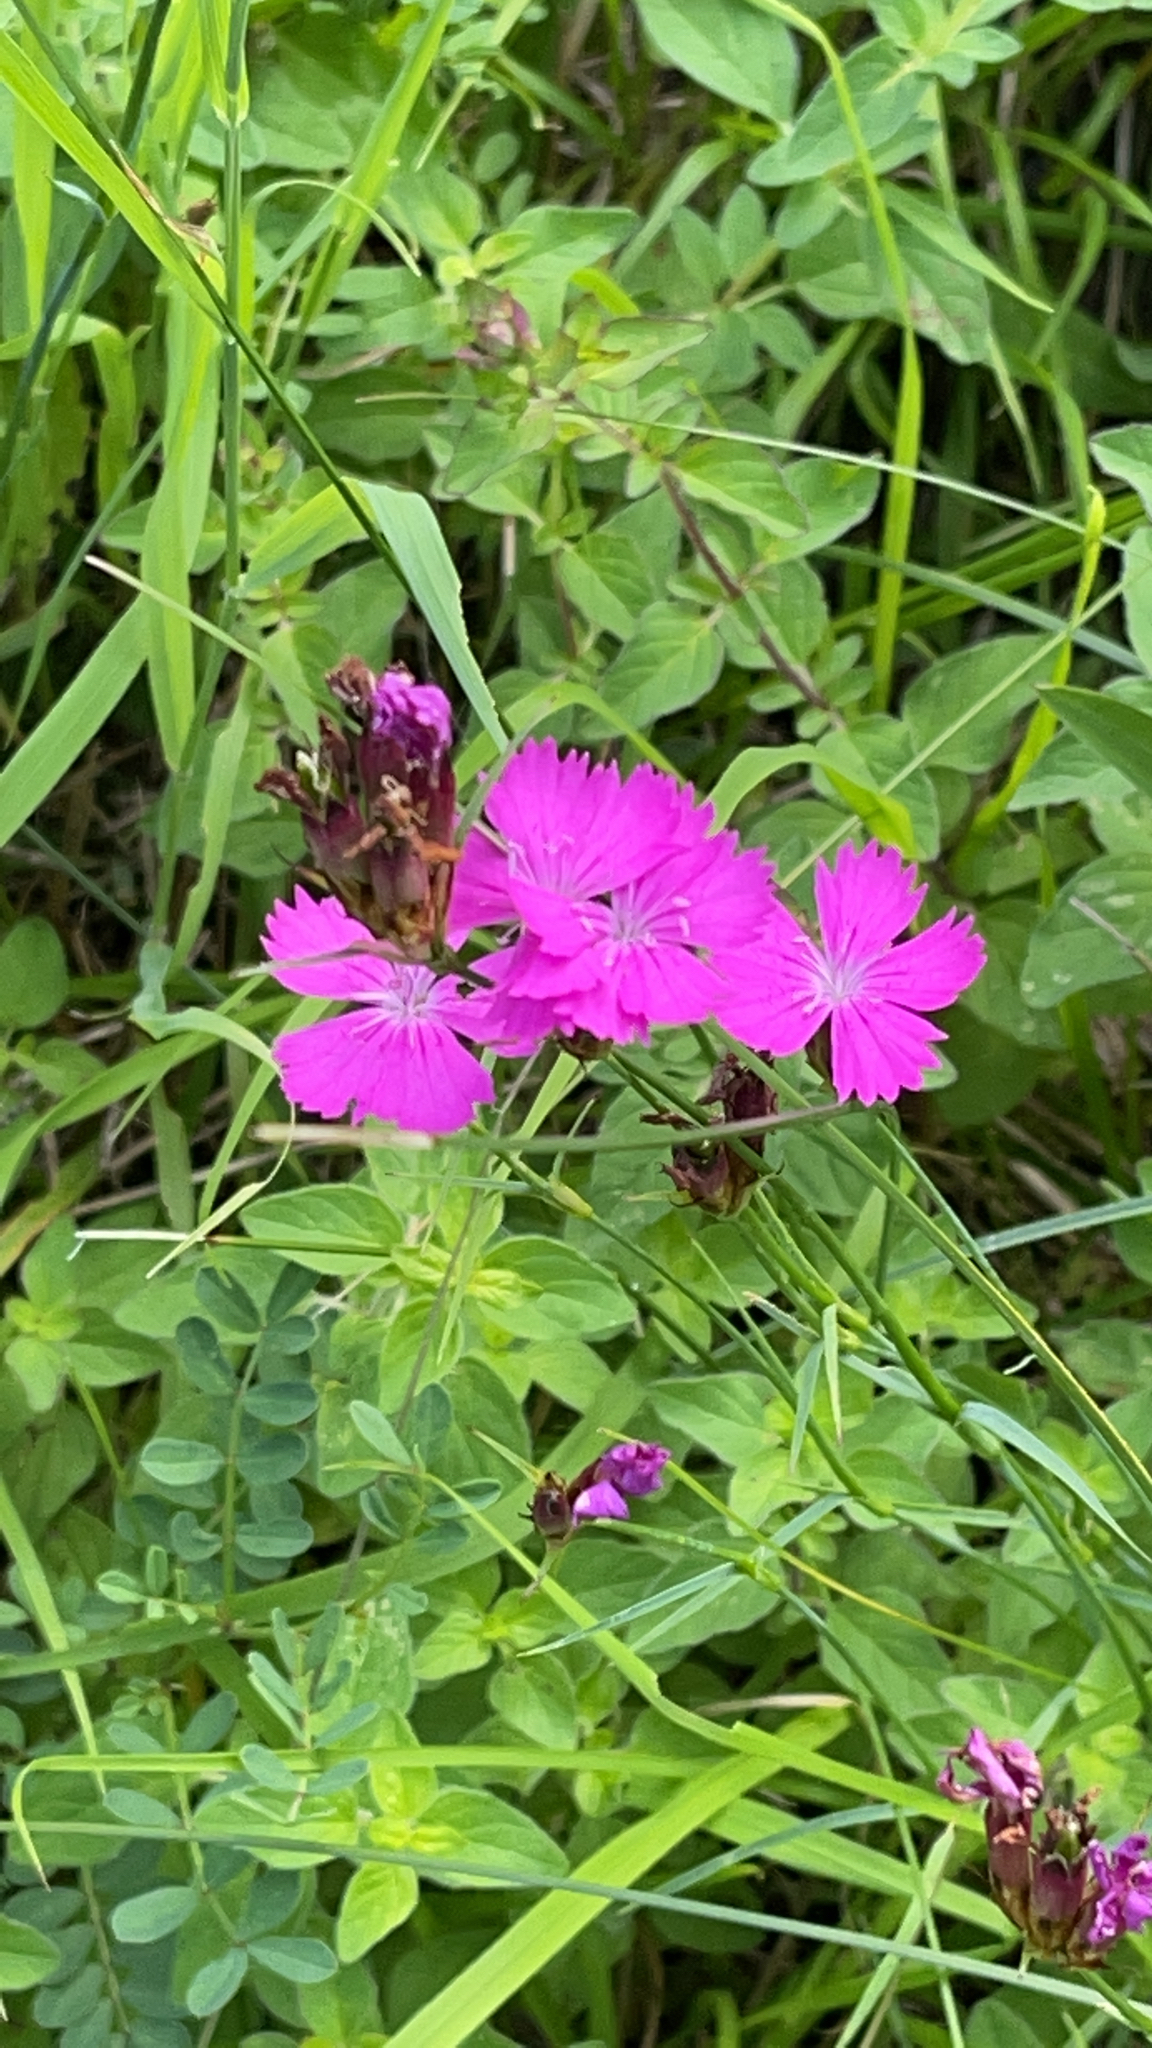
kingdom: Plantae
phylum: Tracheophyta
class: Magnoliopsida
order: Caryophyllales
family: Caryophyllaceae
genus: Dianthus
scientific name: Dianthus carthusianorum
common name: Carthusian pink
